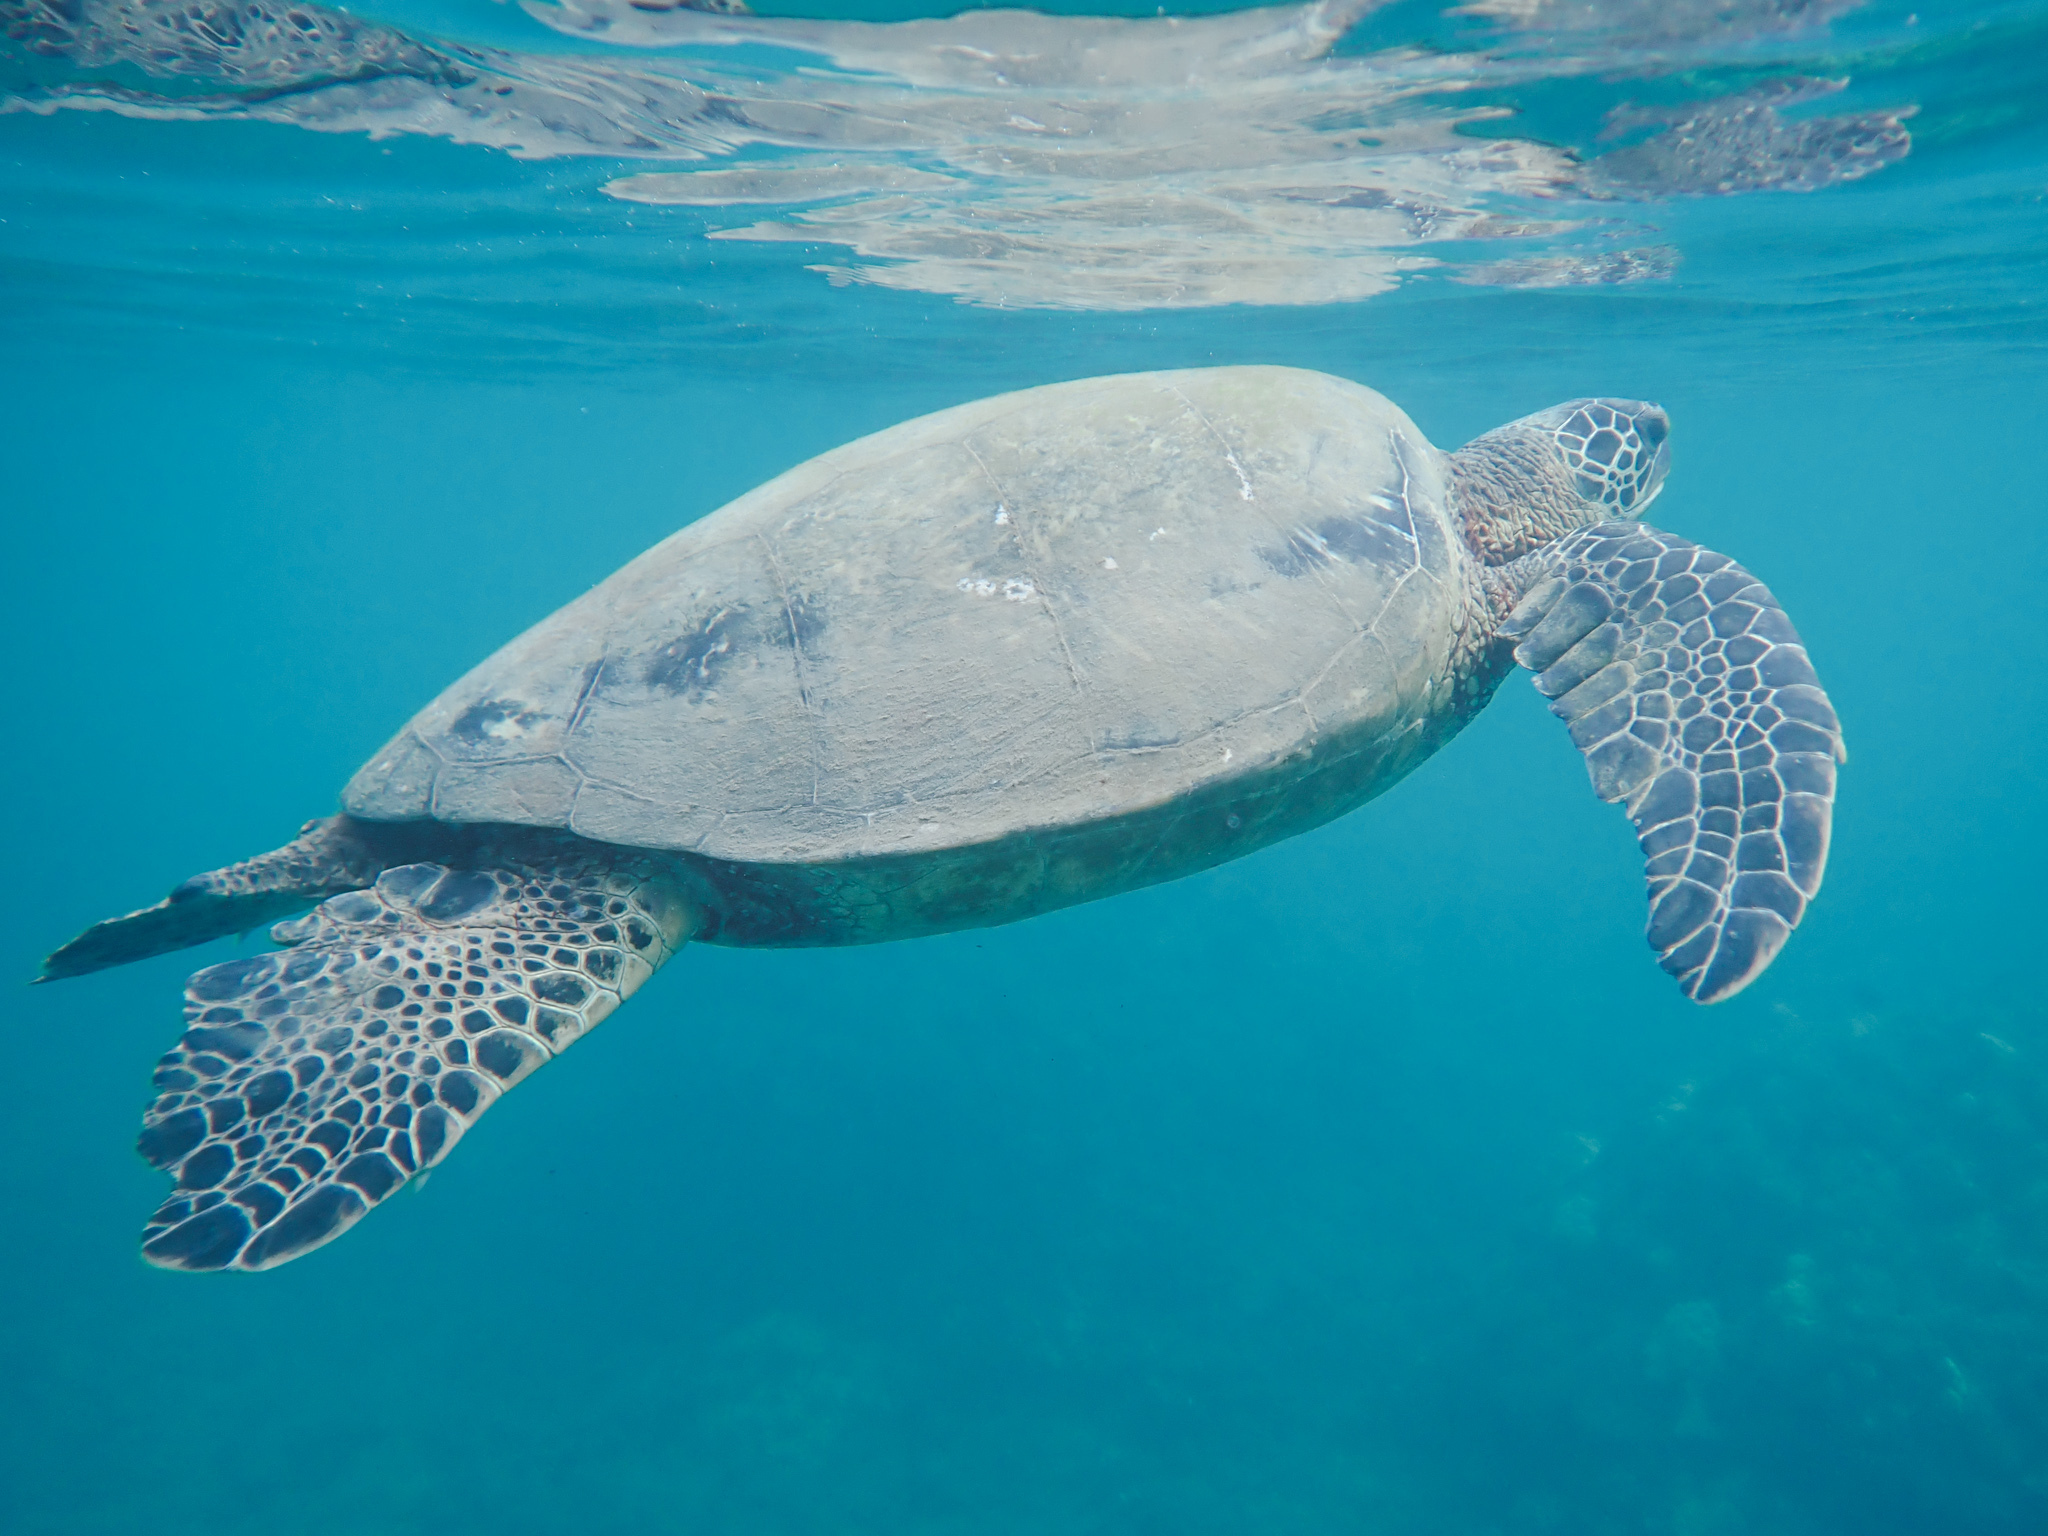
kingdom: Animalia
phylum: Chordata
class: Testudines
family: Cheloniidae
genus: Chelonia
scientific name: Chelonia mydas
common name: Green turtle
